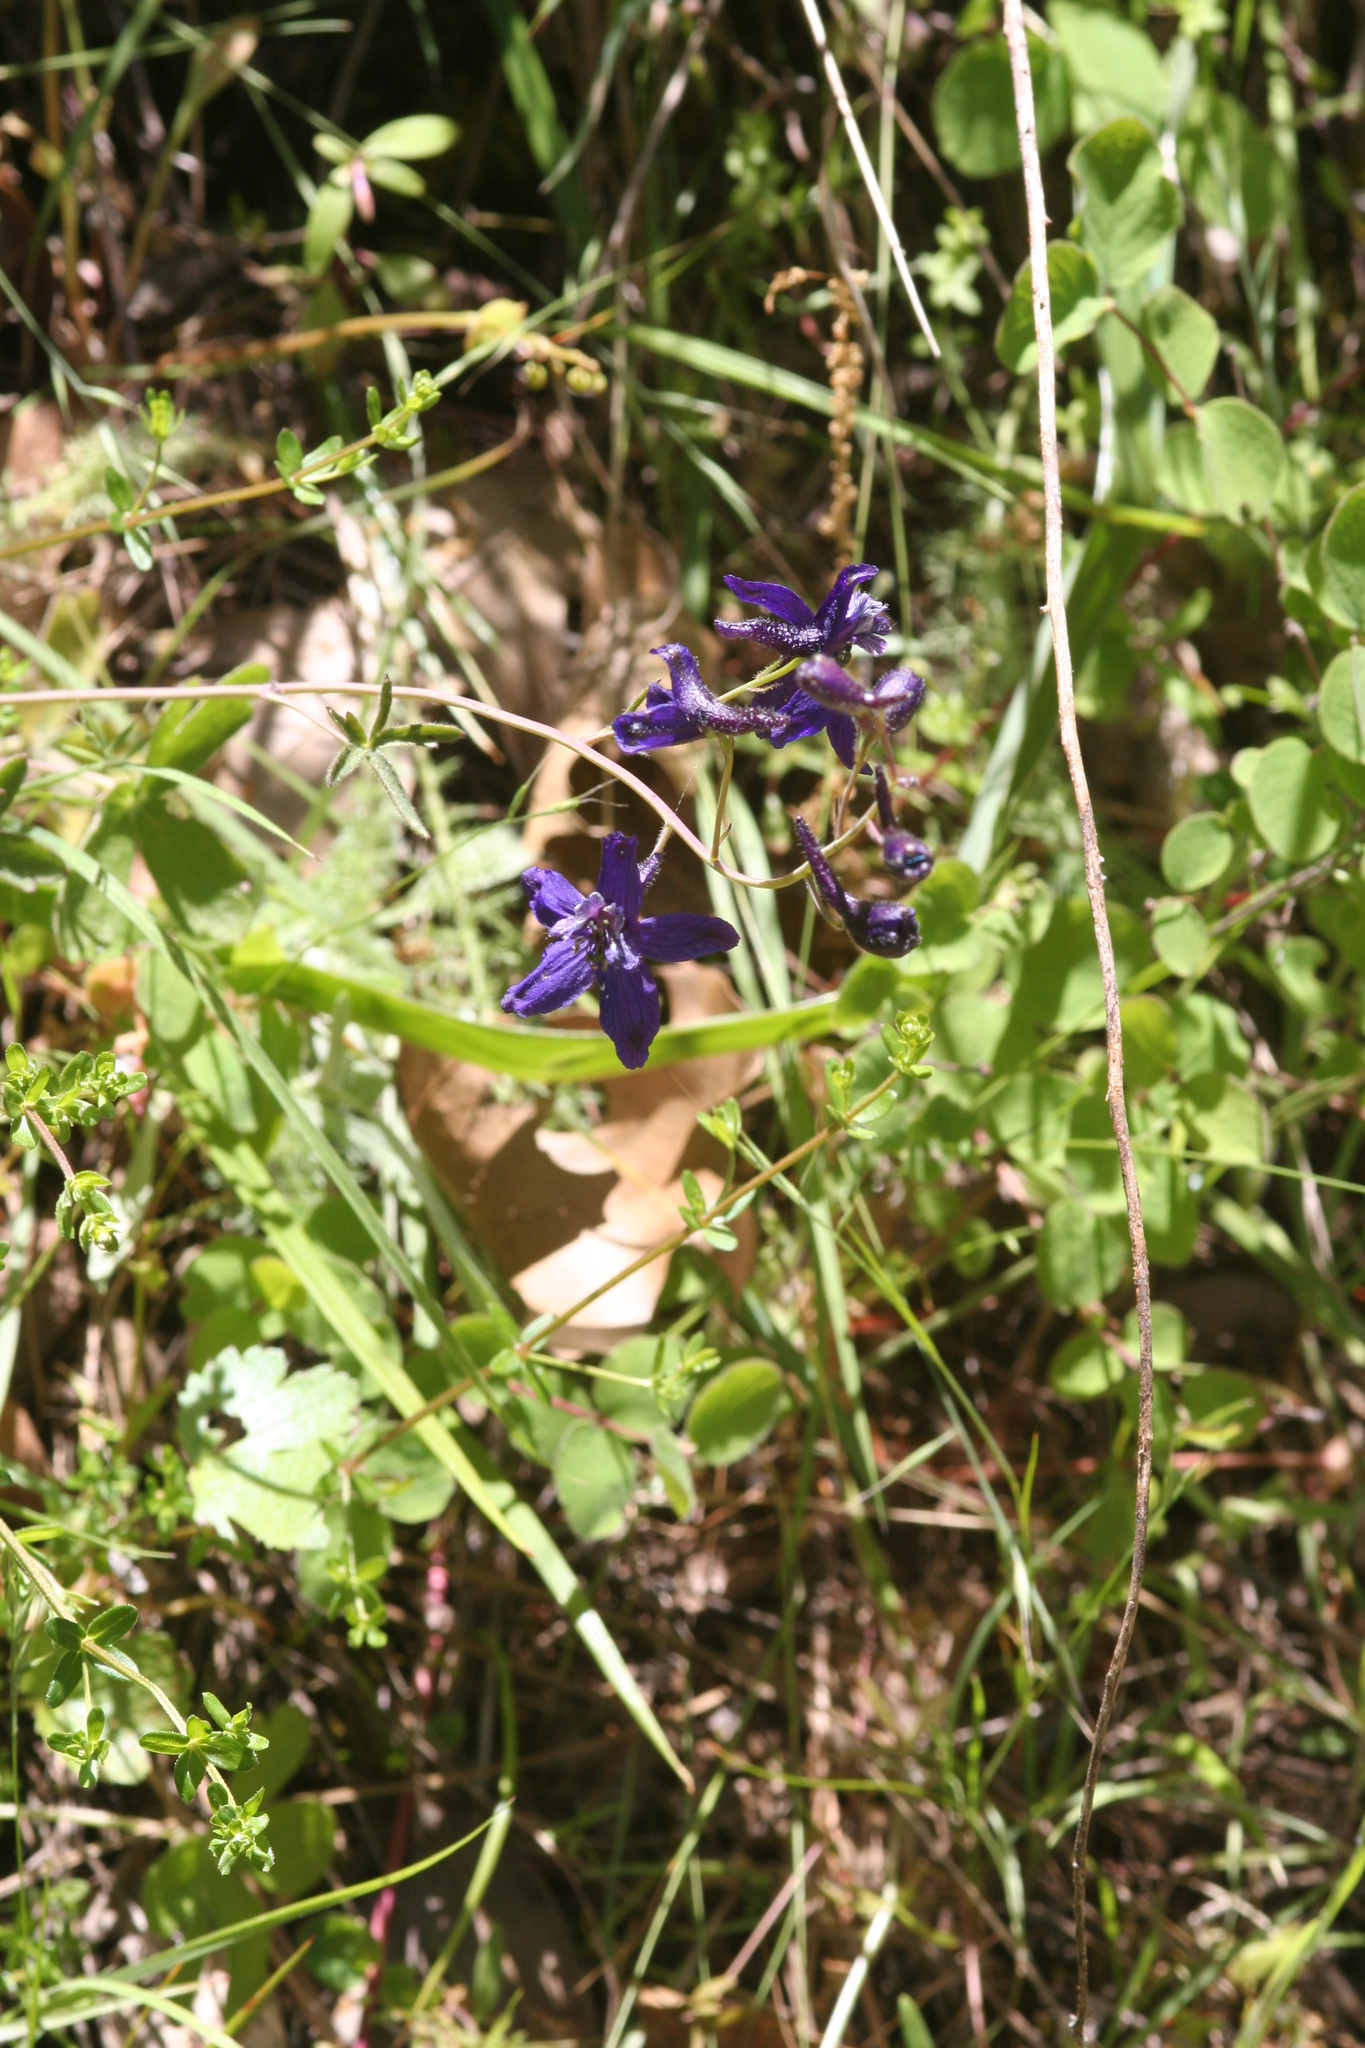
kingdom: Plantae
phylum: Tracheophyta
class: Magnoliopsida
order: Ranunculales
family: Ranunculaceae
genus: Delphinium
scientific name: Delphinium patens
